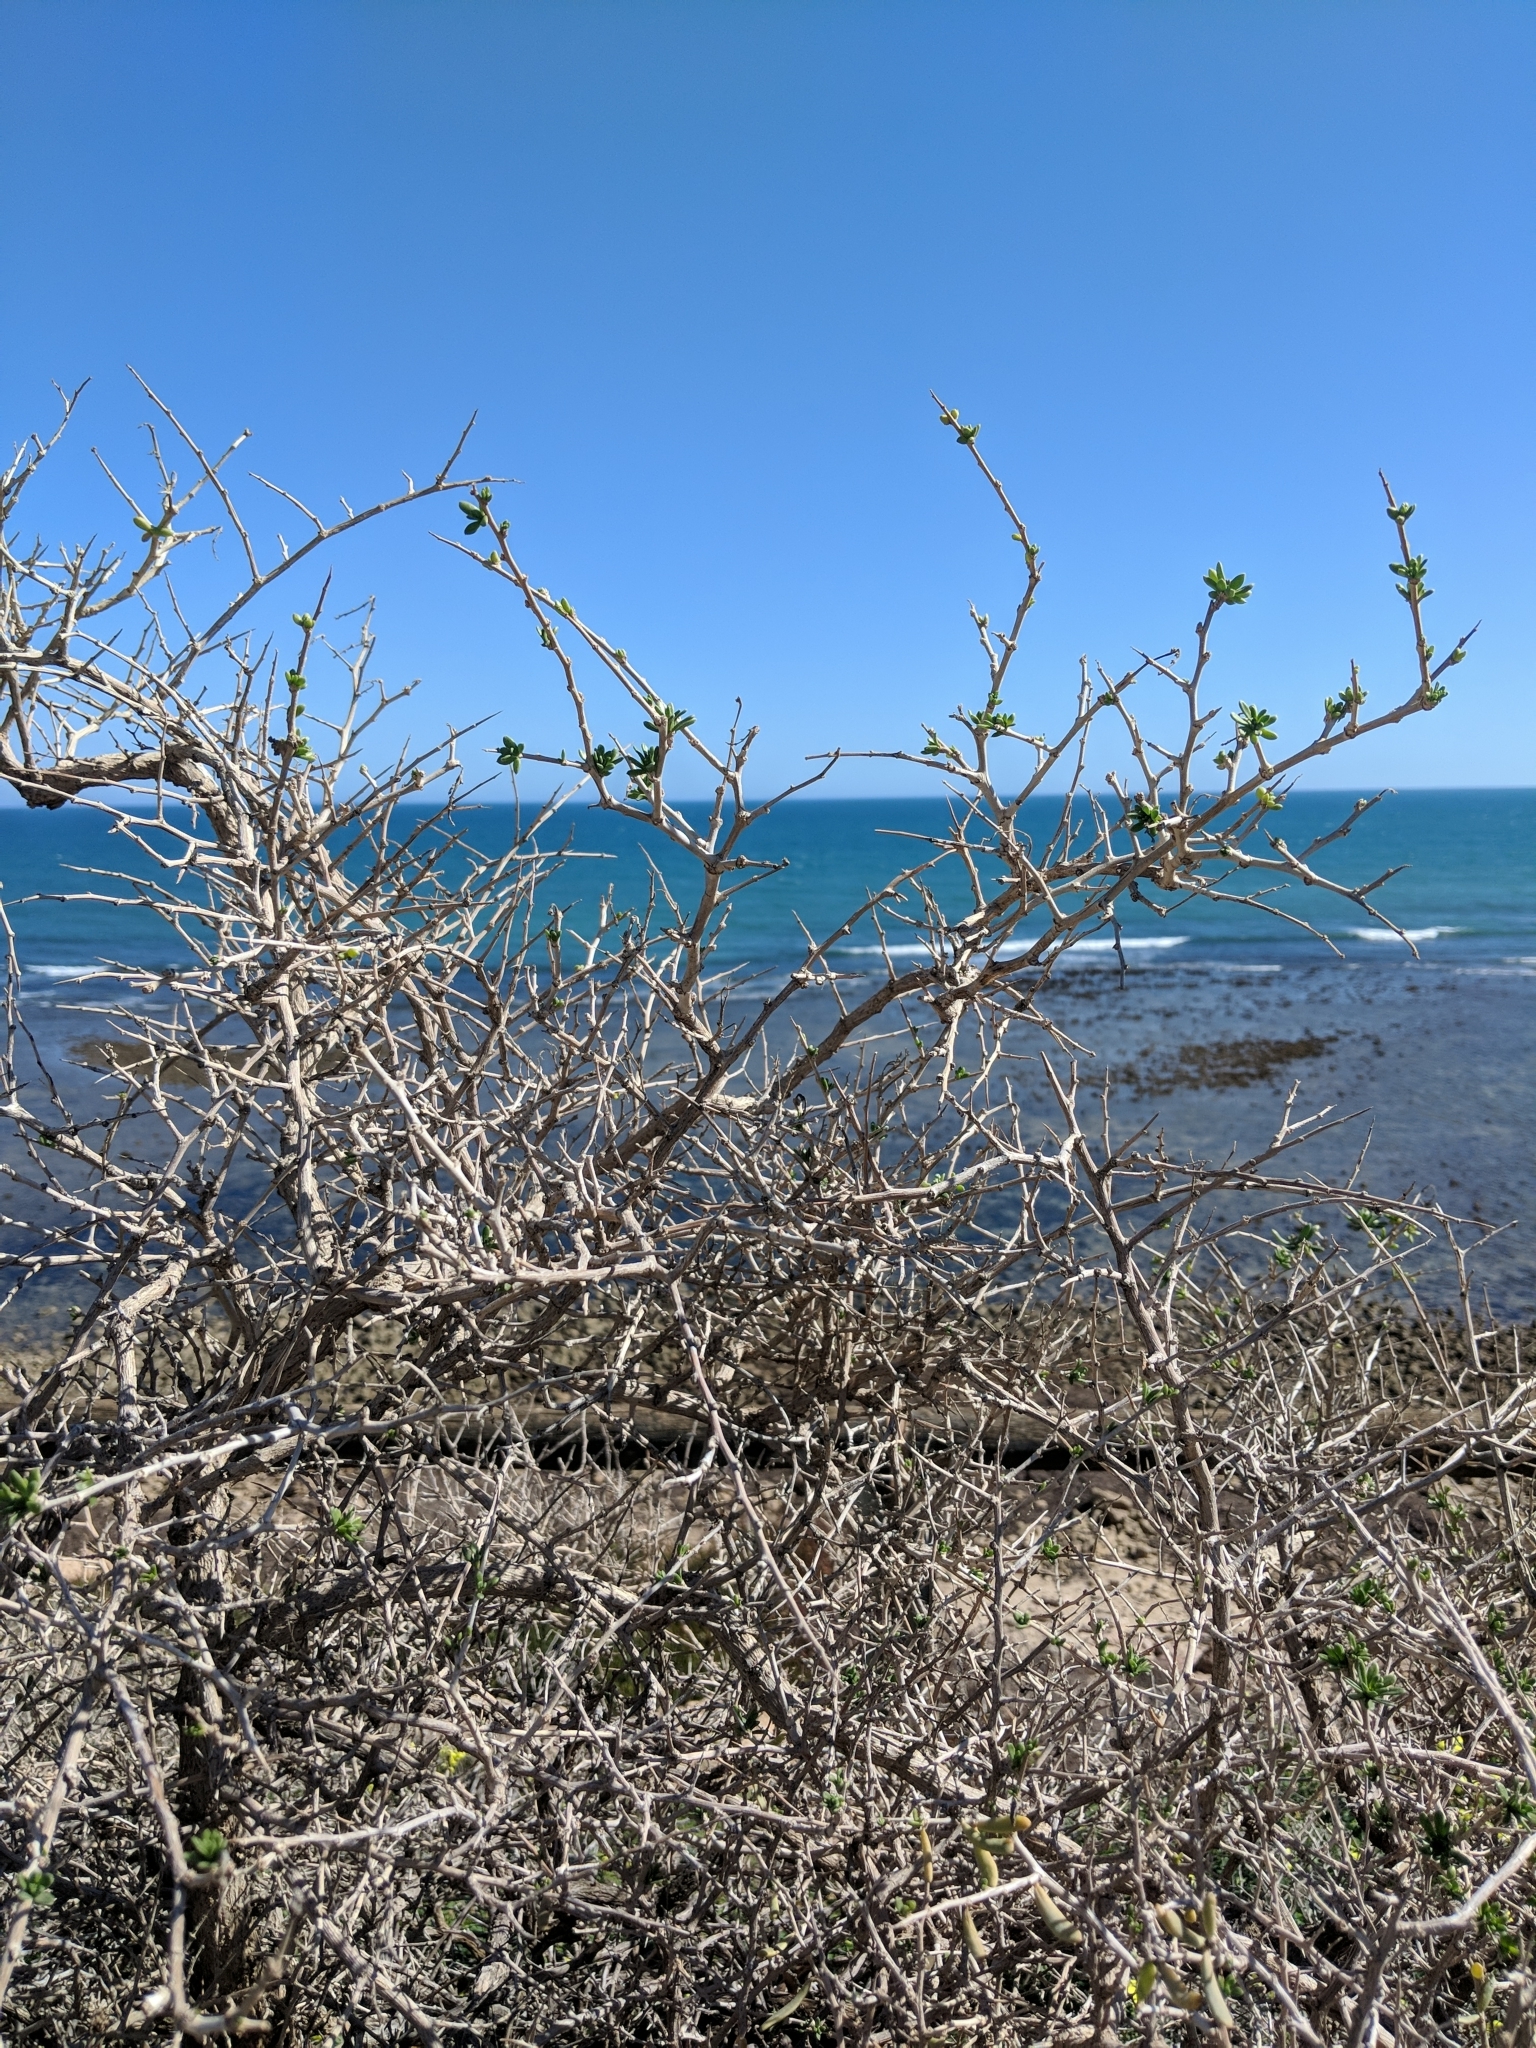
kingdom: Plantae
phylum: Tracheophyta
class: Magnoliopsida
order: Sapindales
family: Nitrariaceae
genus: Nitraria
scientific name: Nitraria billardierei
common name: Dillonbush
